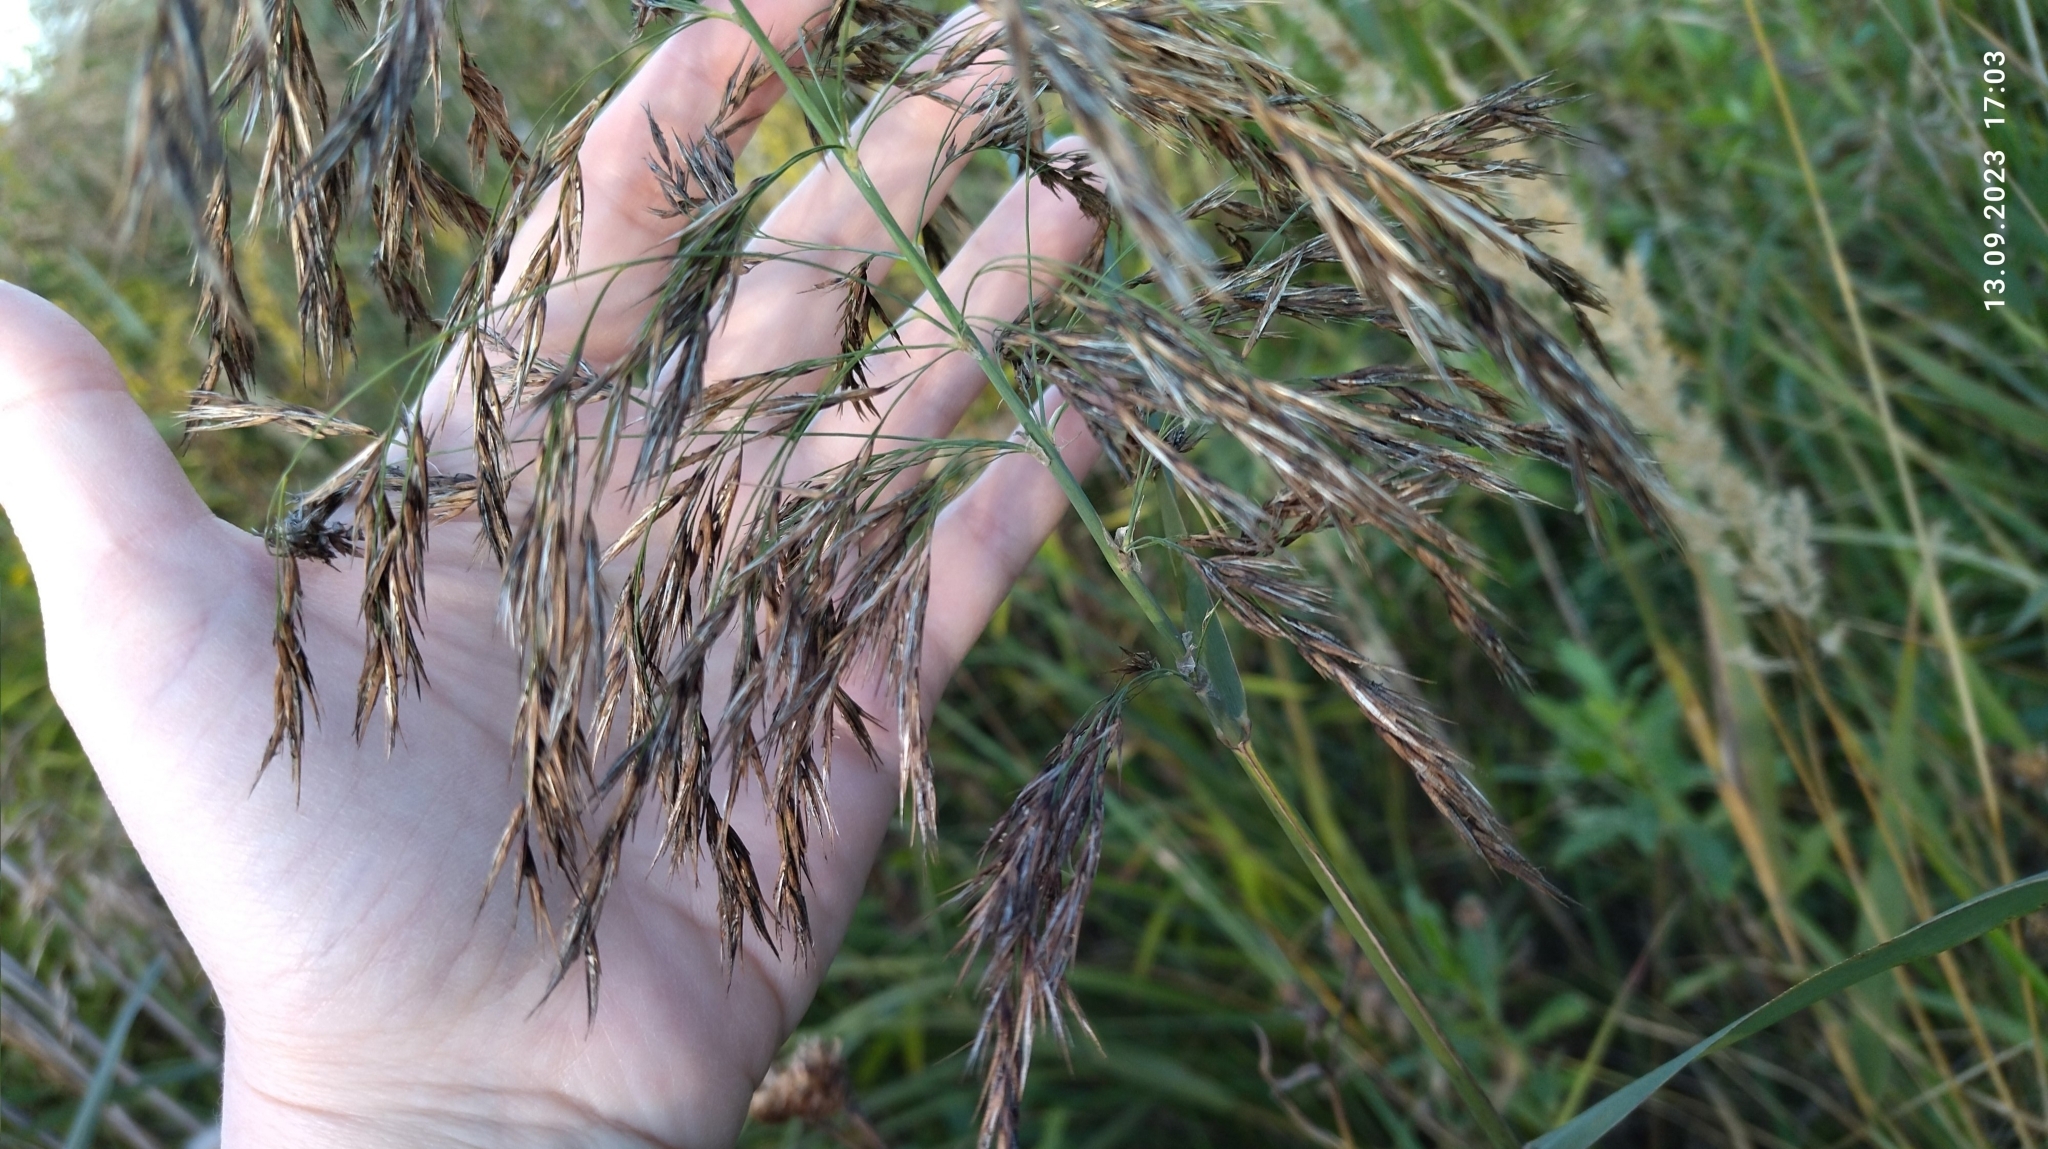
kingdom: Plantae
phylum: Tracheophyta
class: Liliopsida
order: Poales
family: Poaceae
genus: Phragmites
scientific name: Phragmites australis
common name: Common reed
